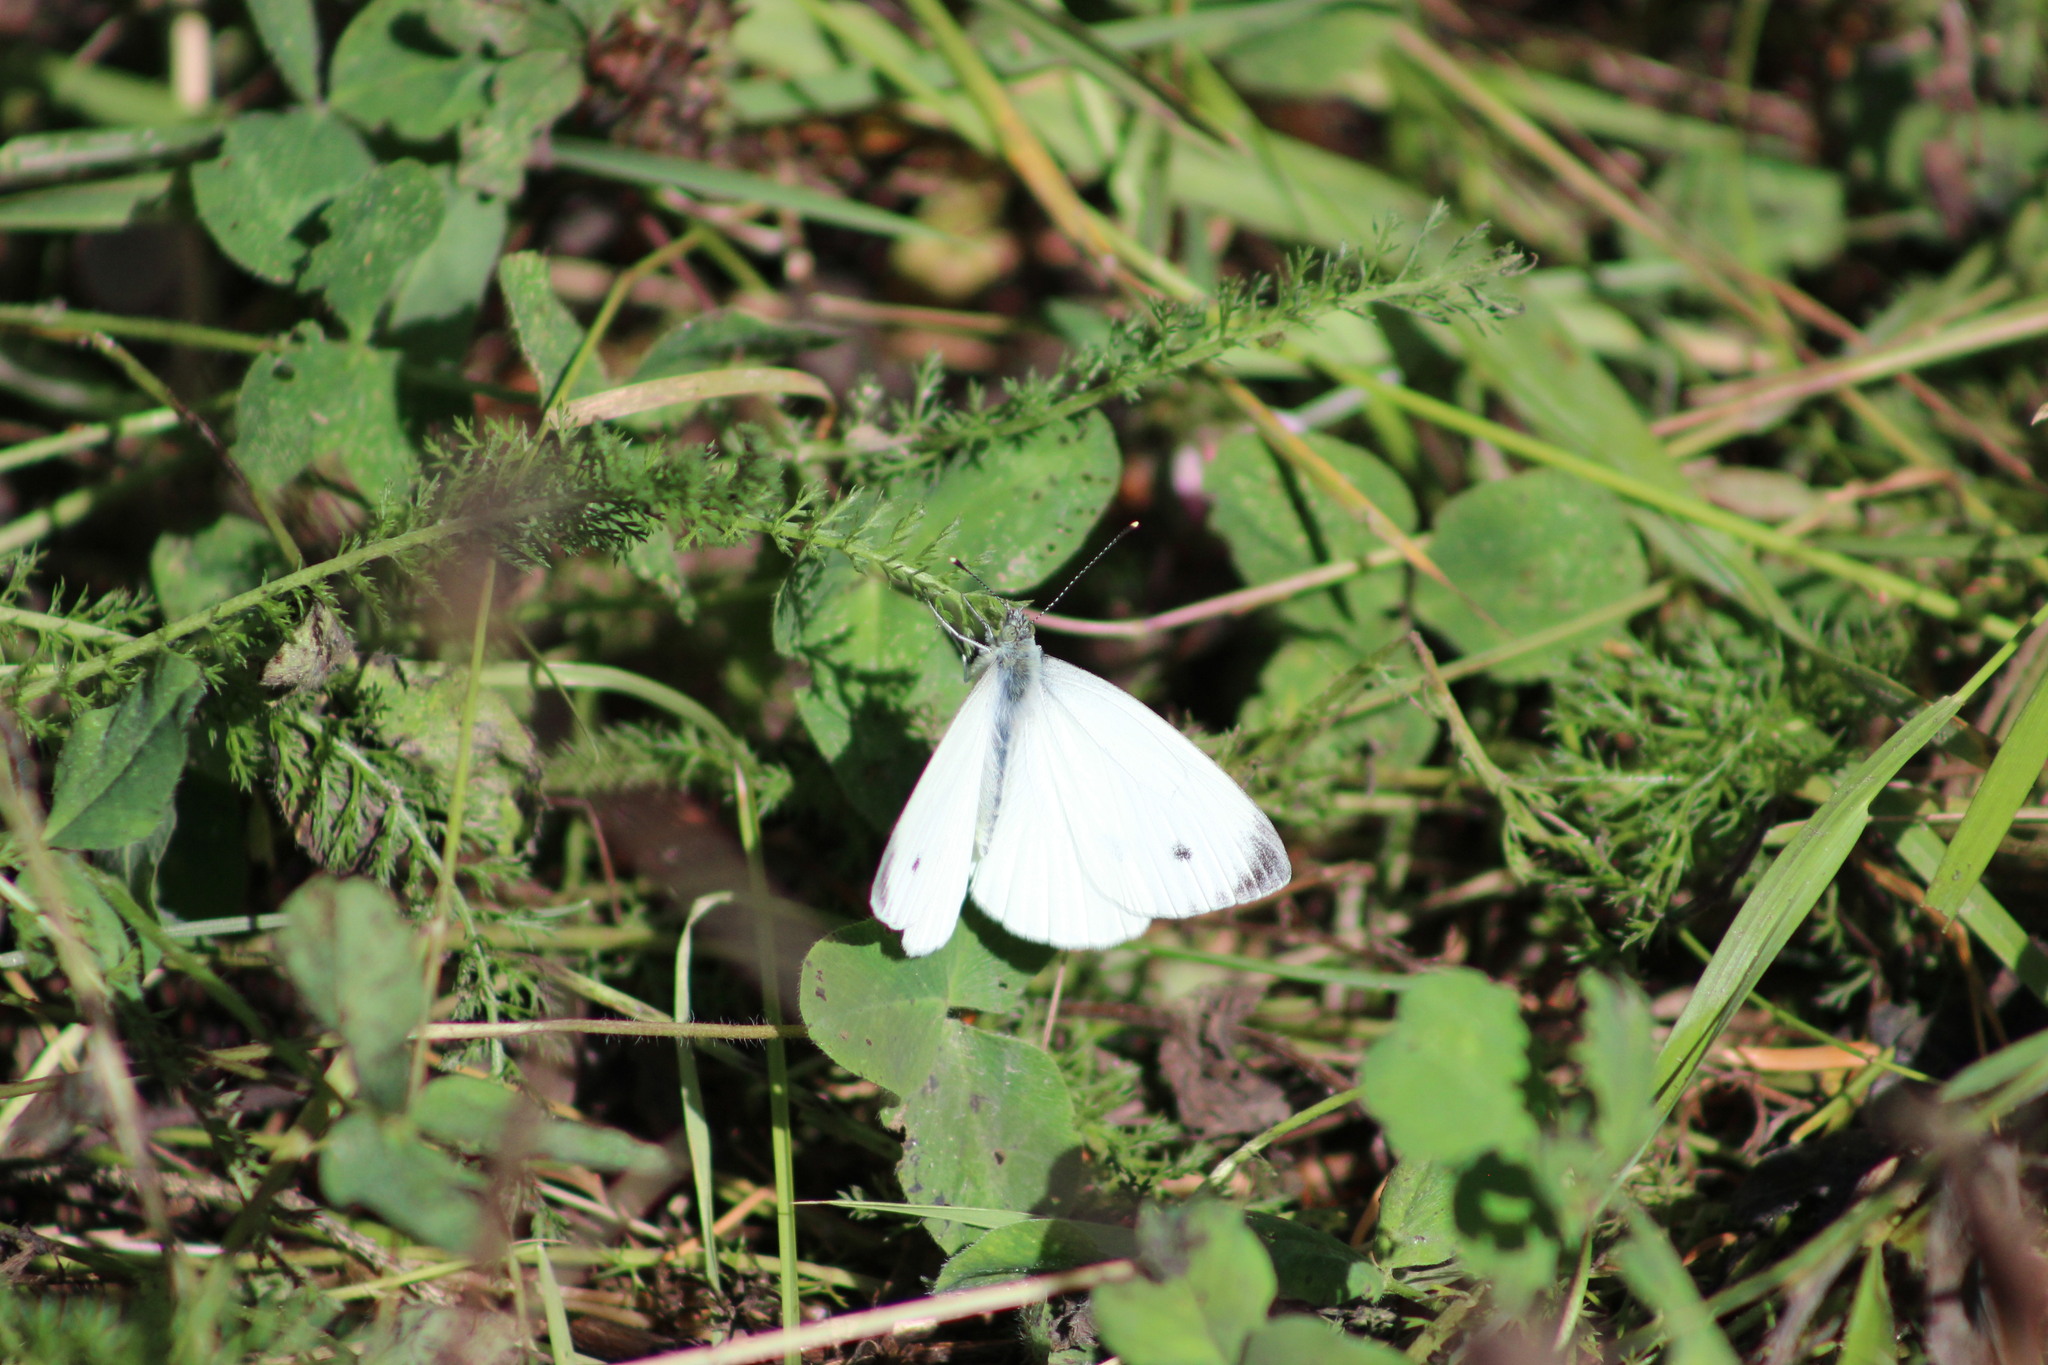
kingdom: Animalia
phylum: Arthropoda
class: Insecta
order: Lepidoptera
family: Pieridae
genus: Pieris
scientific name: Pieris napi
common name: Green-veined white
